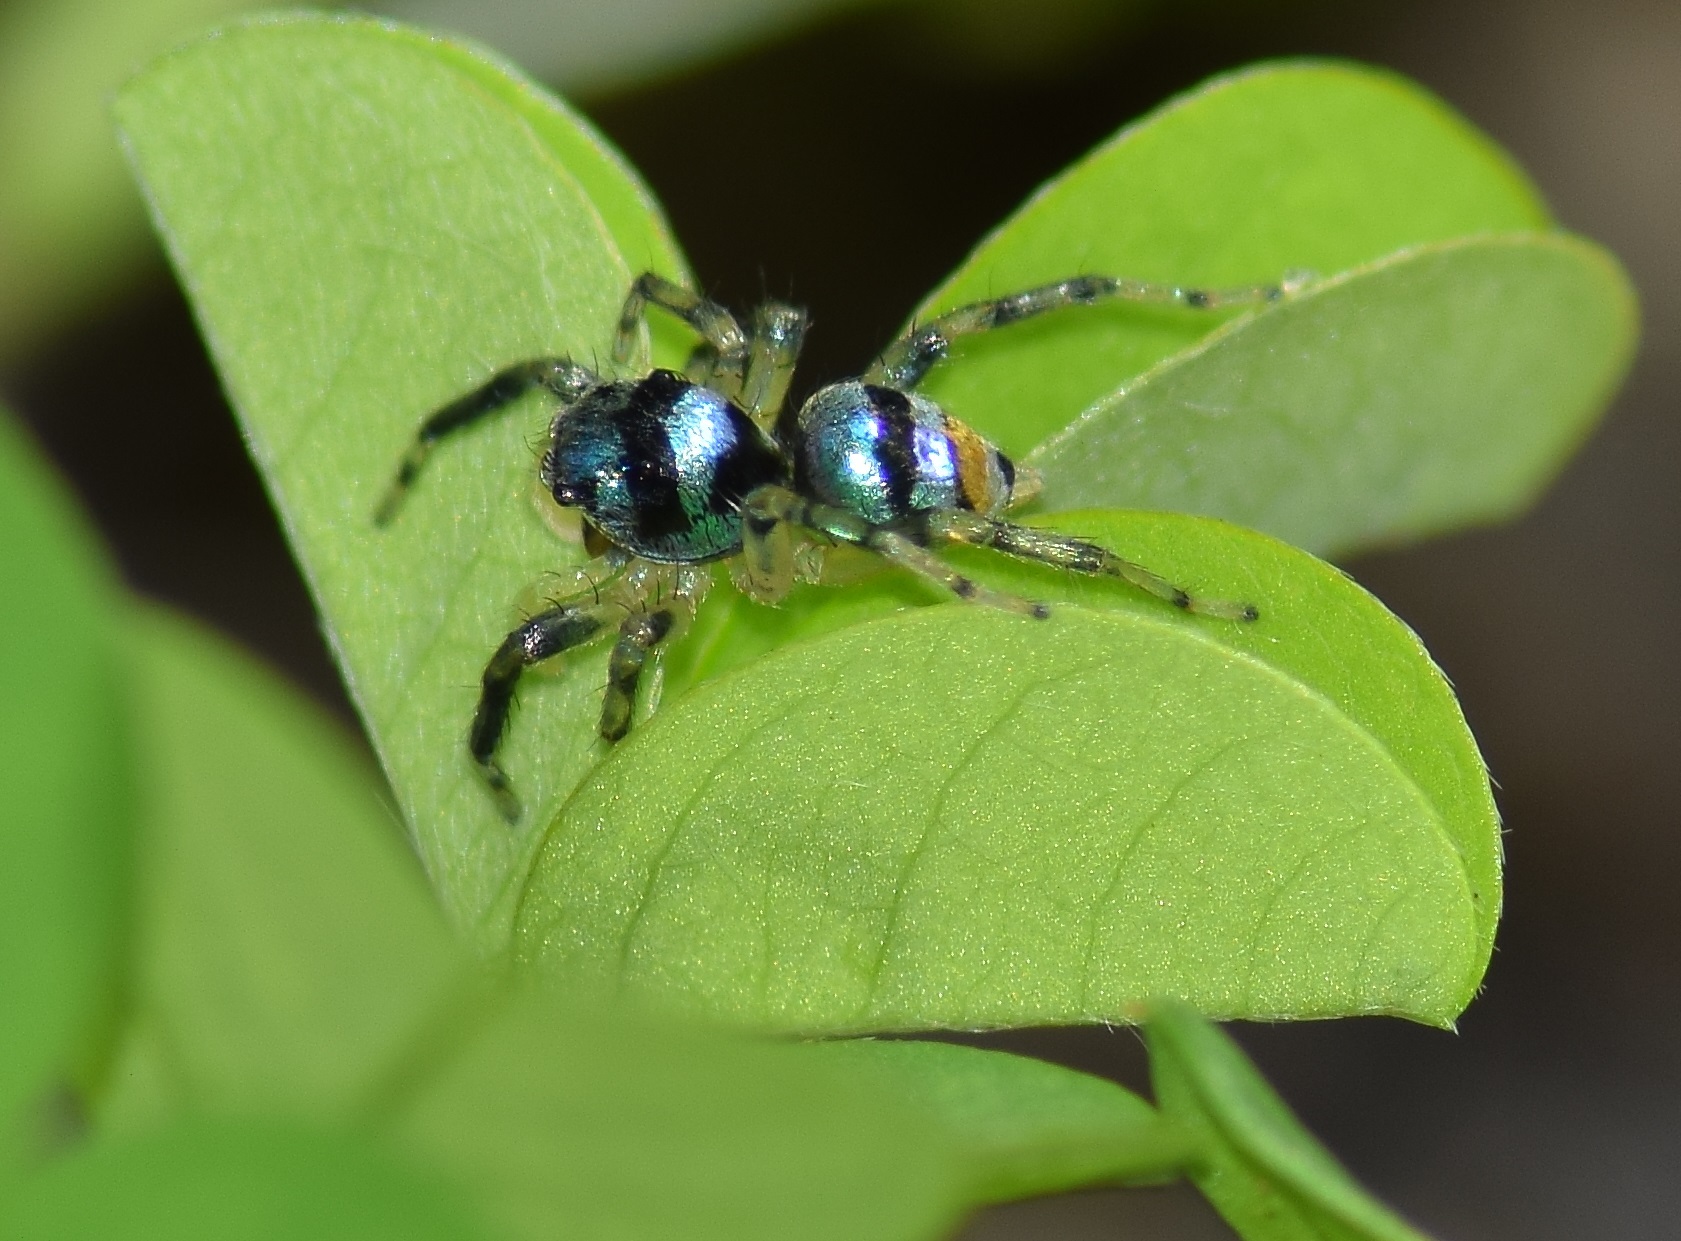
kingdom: Animalia
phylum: Arthropoda
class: Arachnida
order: Araneae
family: Salticidae
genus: Phintella
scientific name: Phintella vittata
